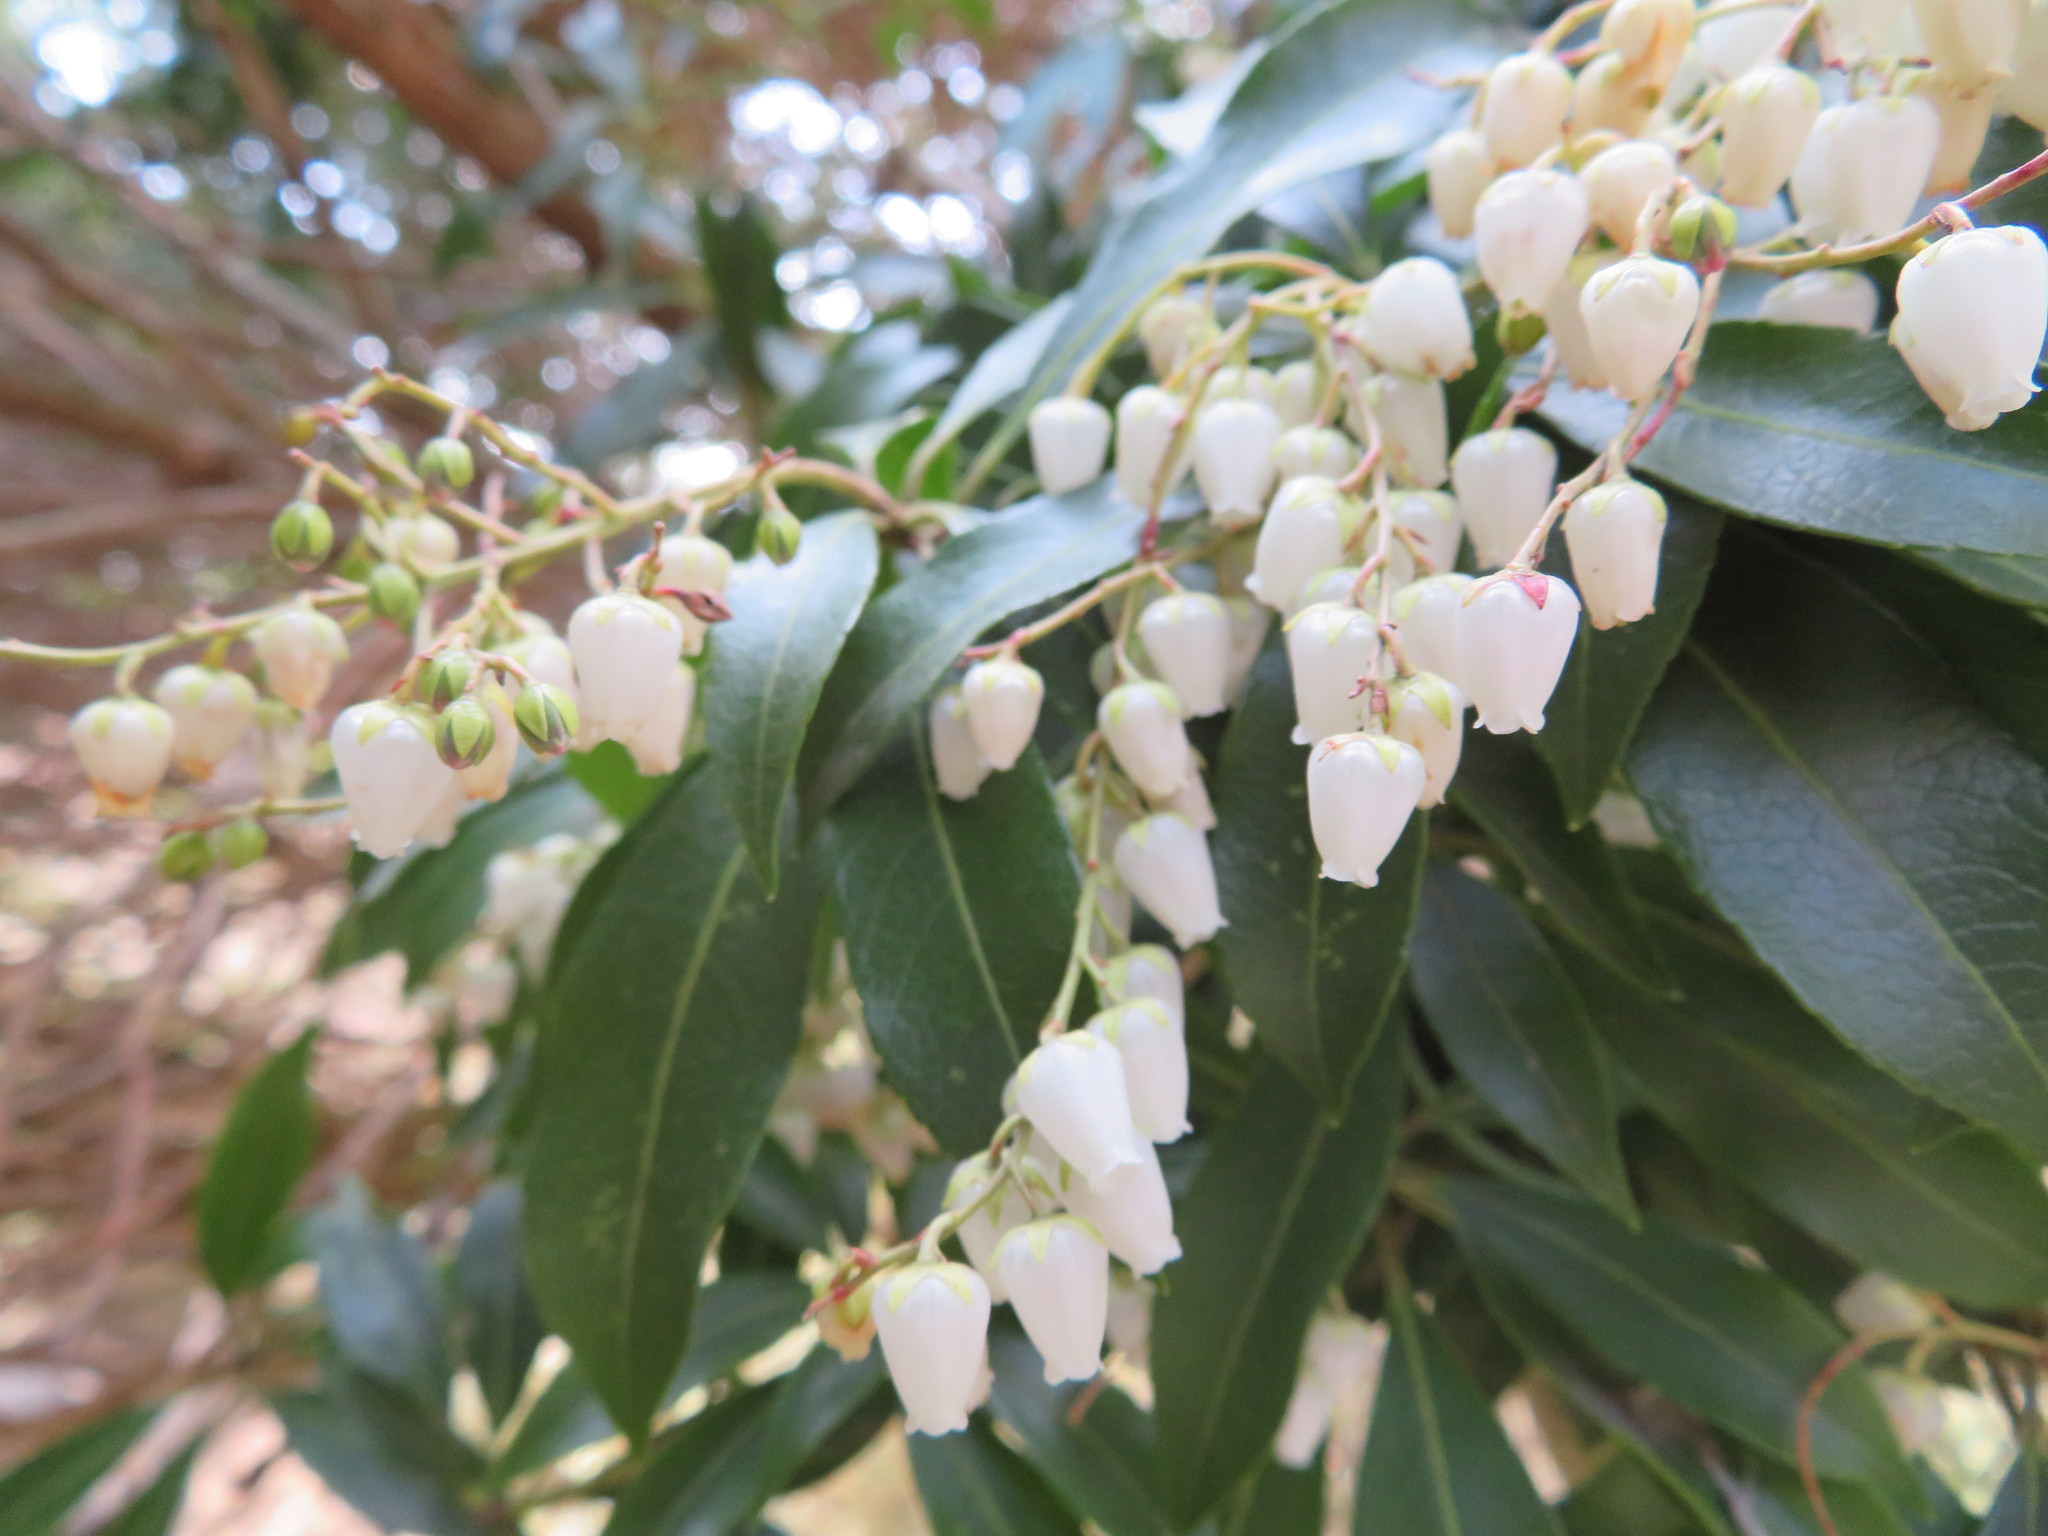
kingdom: Plantae
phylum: Tracheophyta
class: Magnoliopsida
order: Ericales
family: Ericaceae
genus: Pieris
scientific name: Pieris japonica
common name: Japanese pieris
